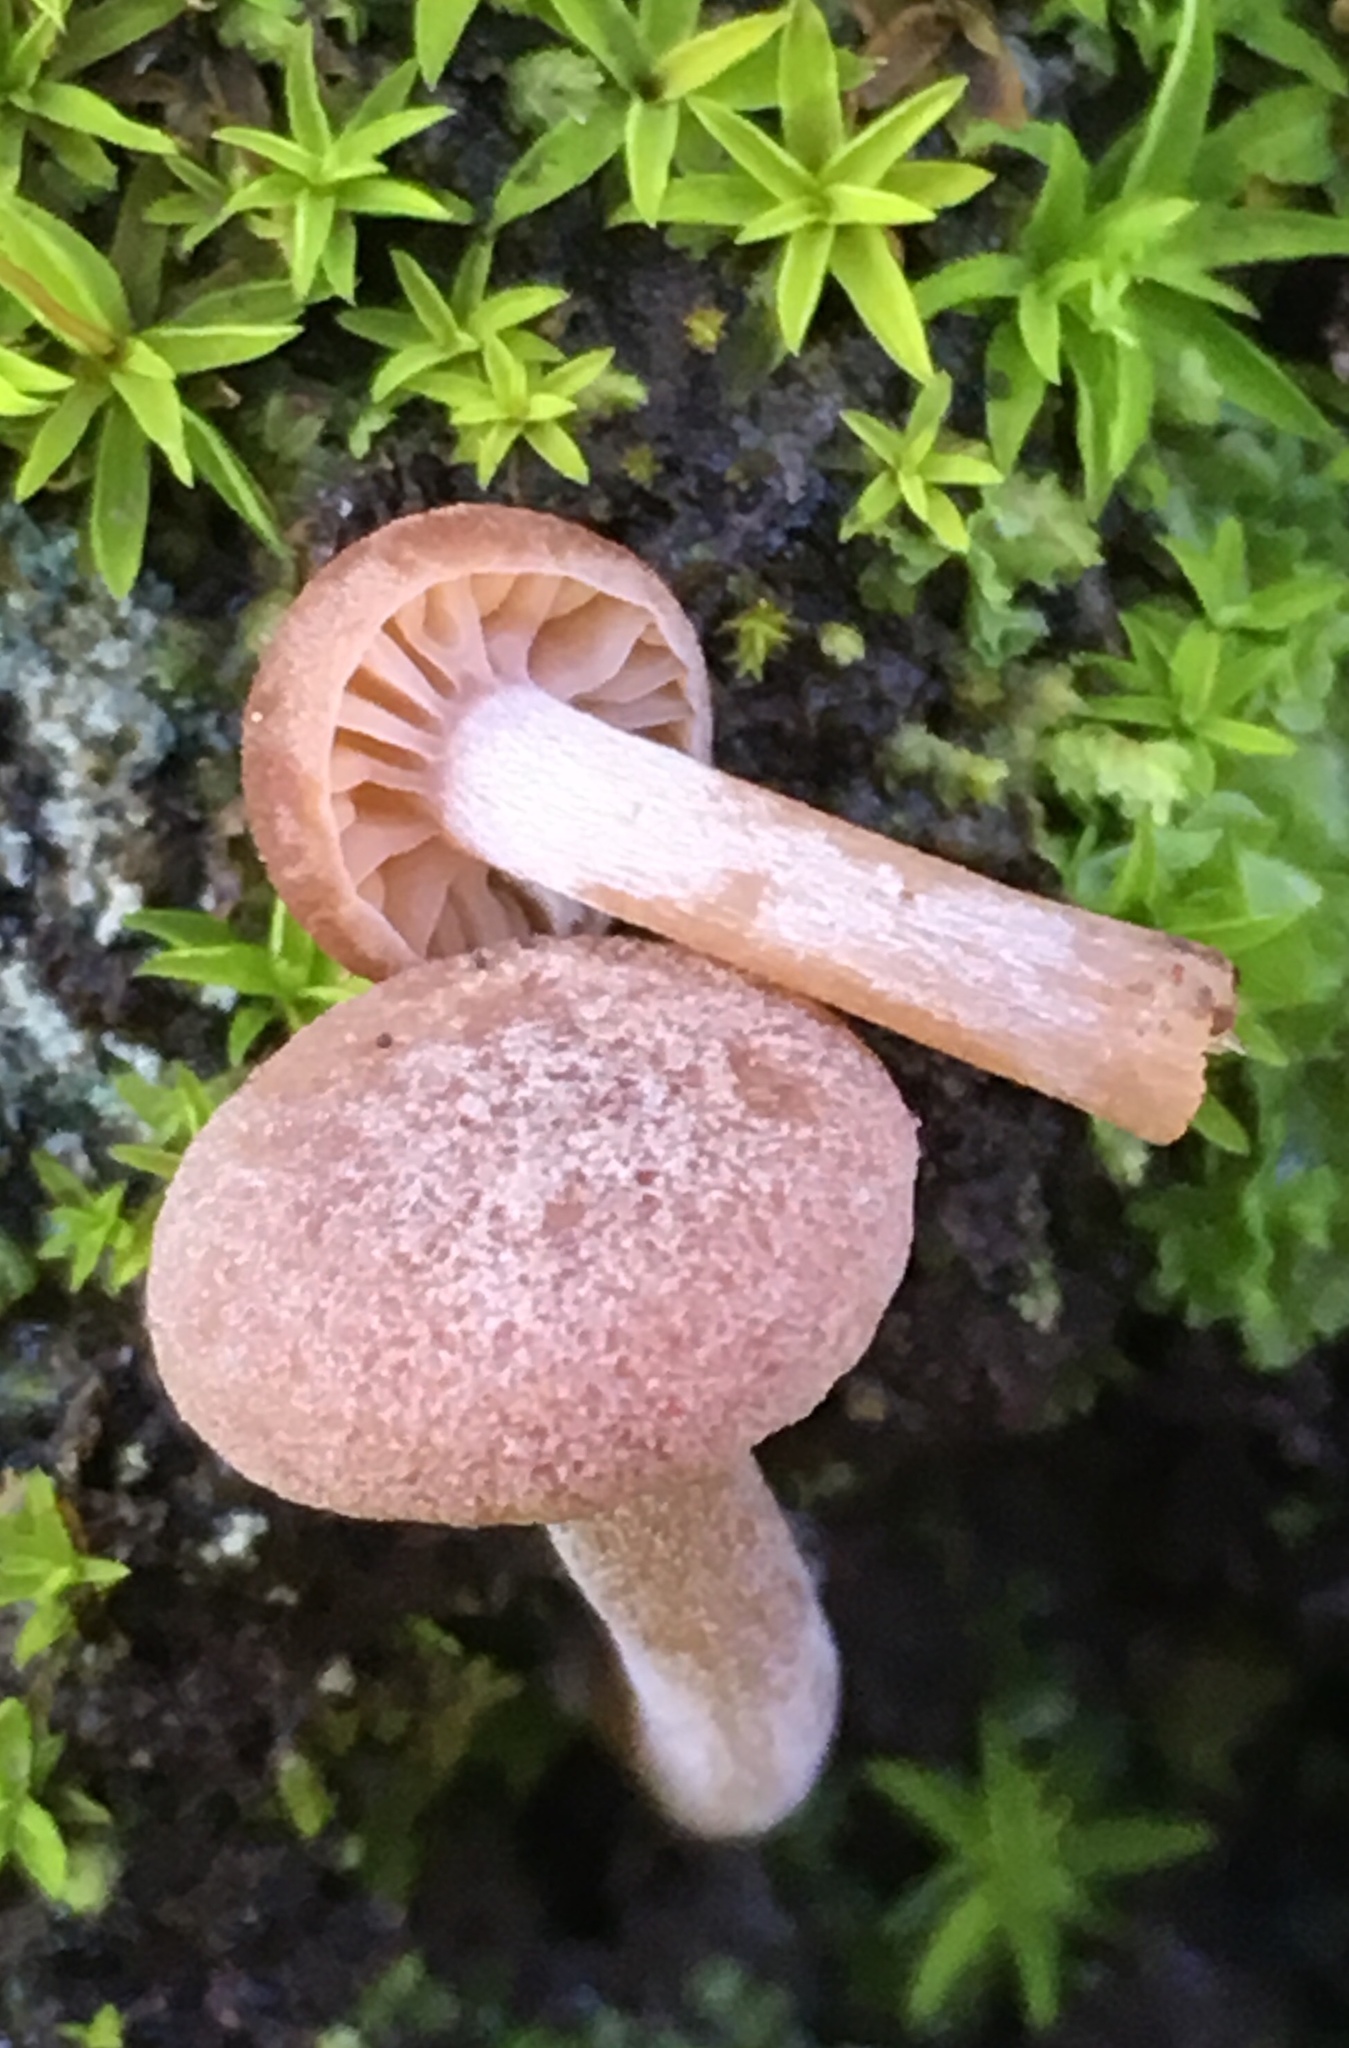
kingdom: Fungi
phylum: Basidiomycota
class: Agaricomycetes
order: Agaricales
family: Callistosporiaceae
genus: Pseudolaccaria
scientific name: Pseudolaccaria pachyphylla
